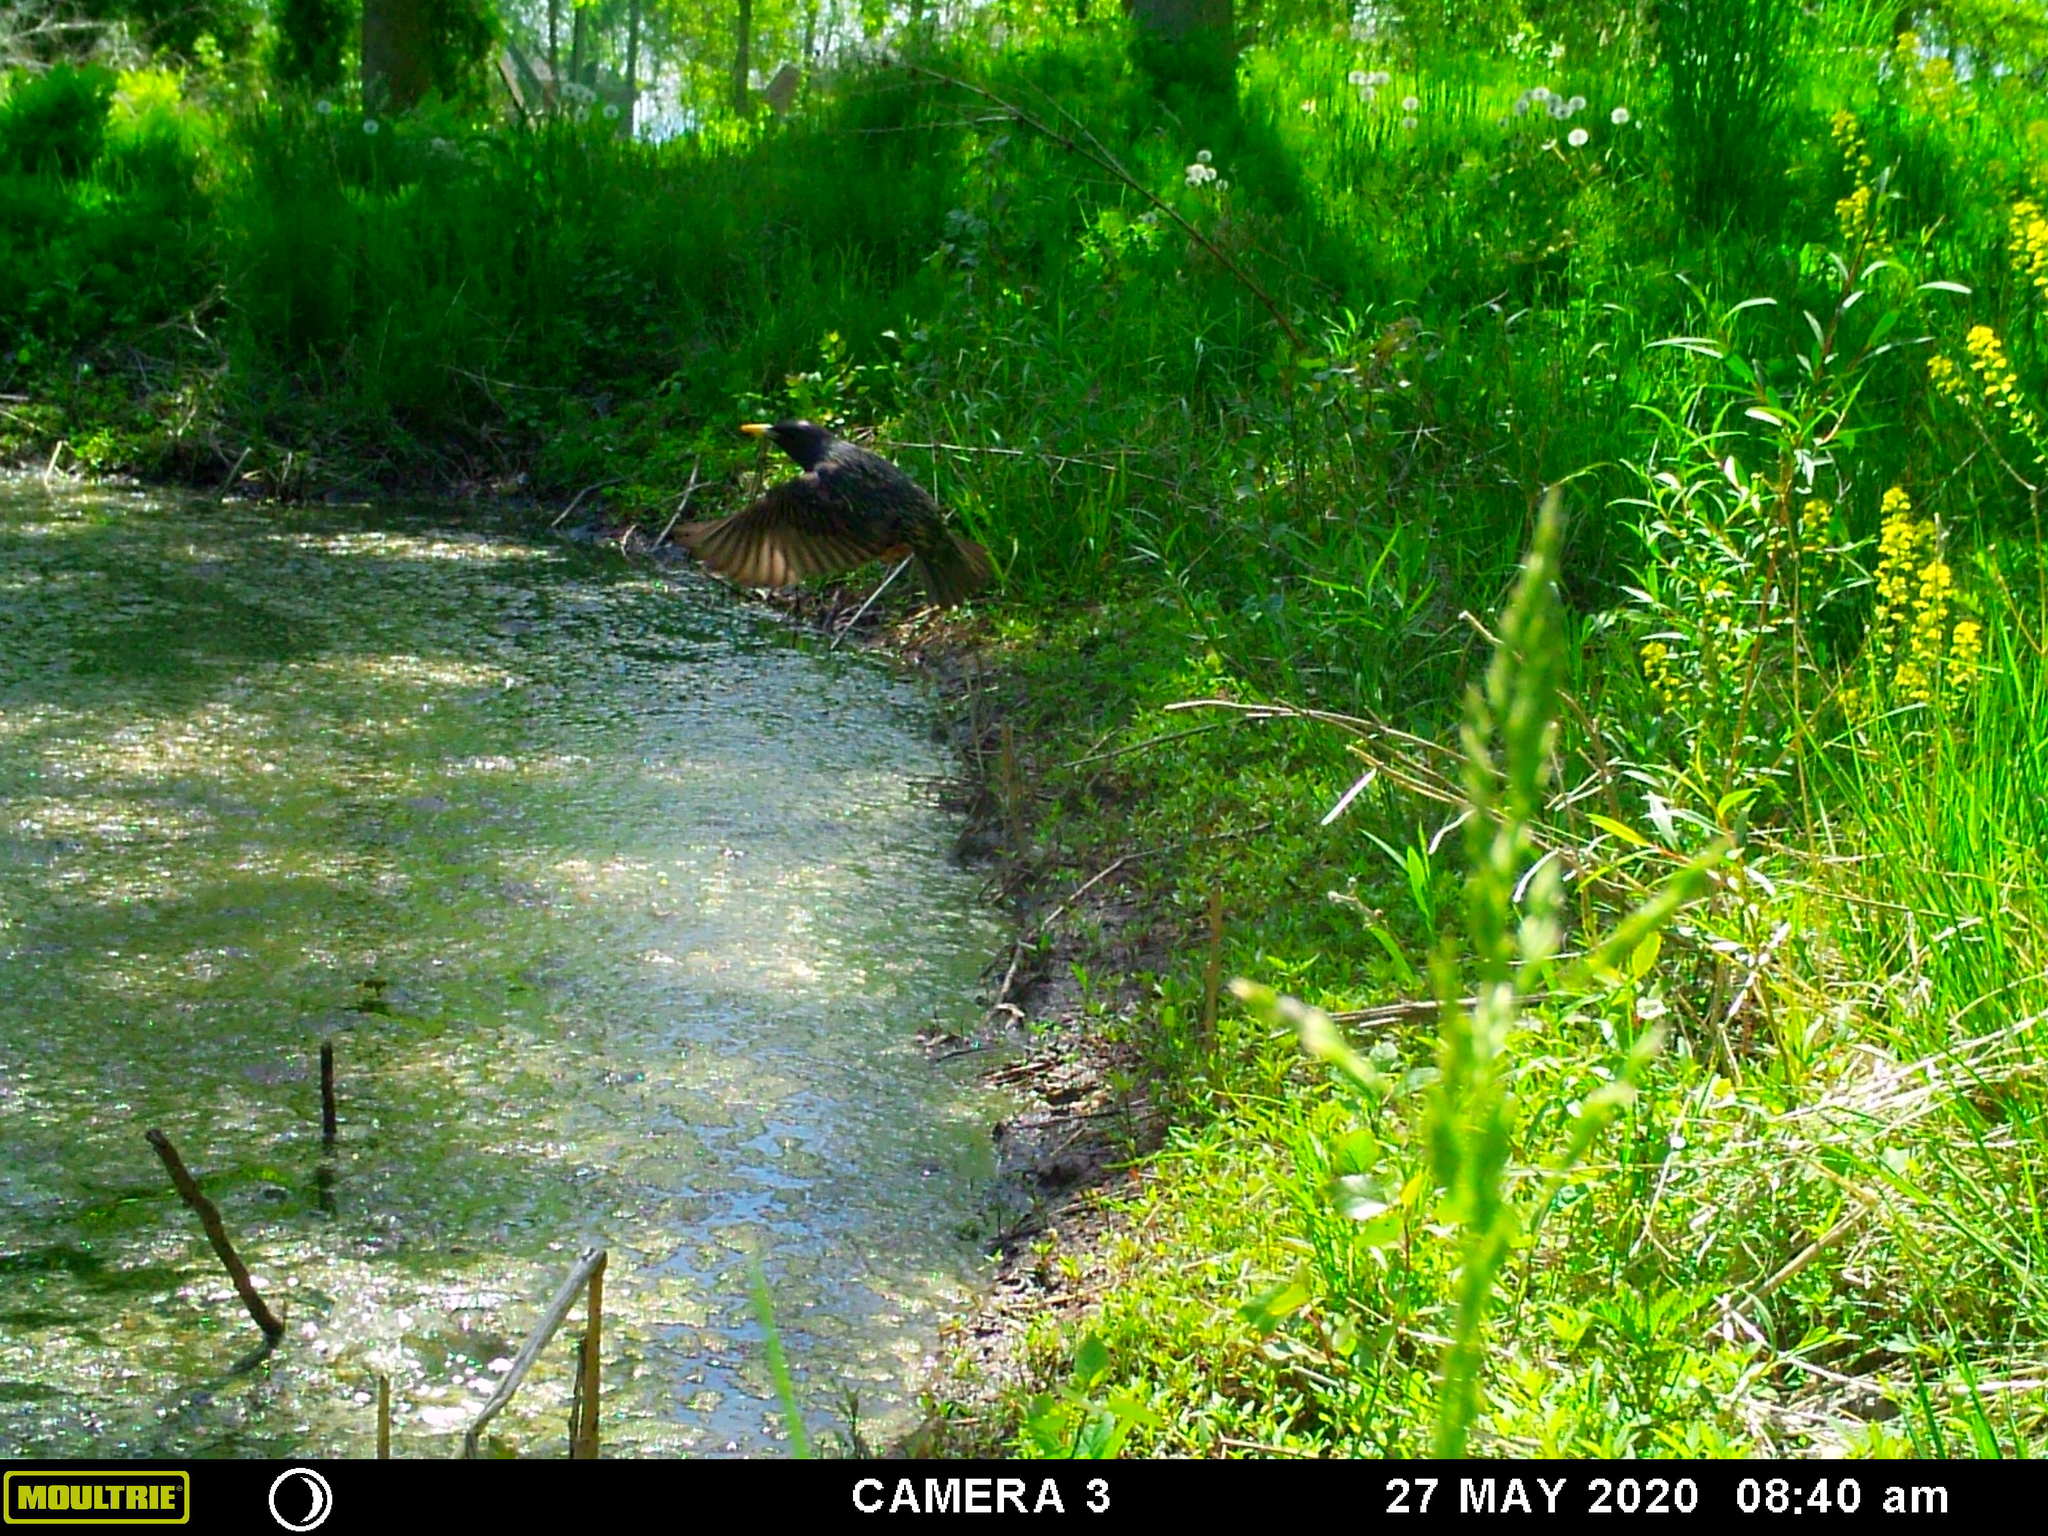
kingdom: Animalia
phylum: Chordata
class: Aves
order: Passeriformes
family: Sturnidae
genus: Sturnus
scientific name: Sturnus vulgaris
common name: Common starling
